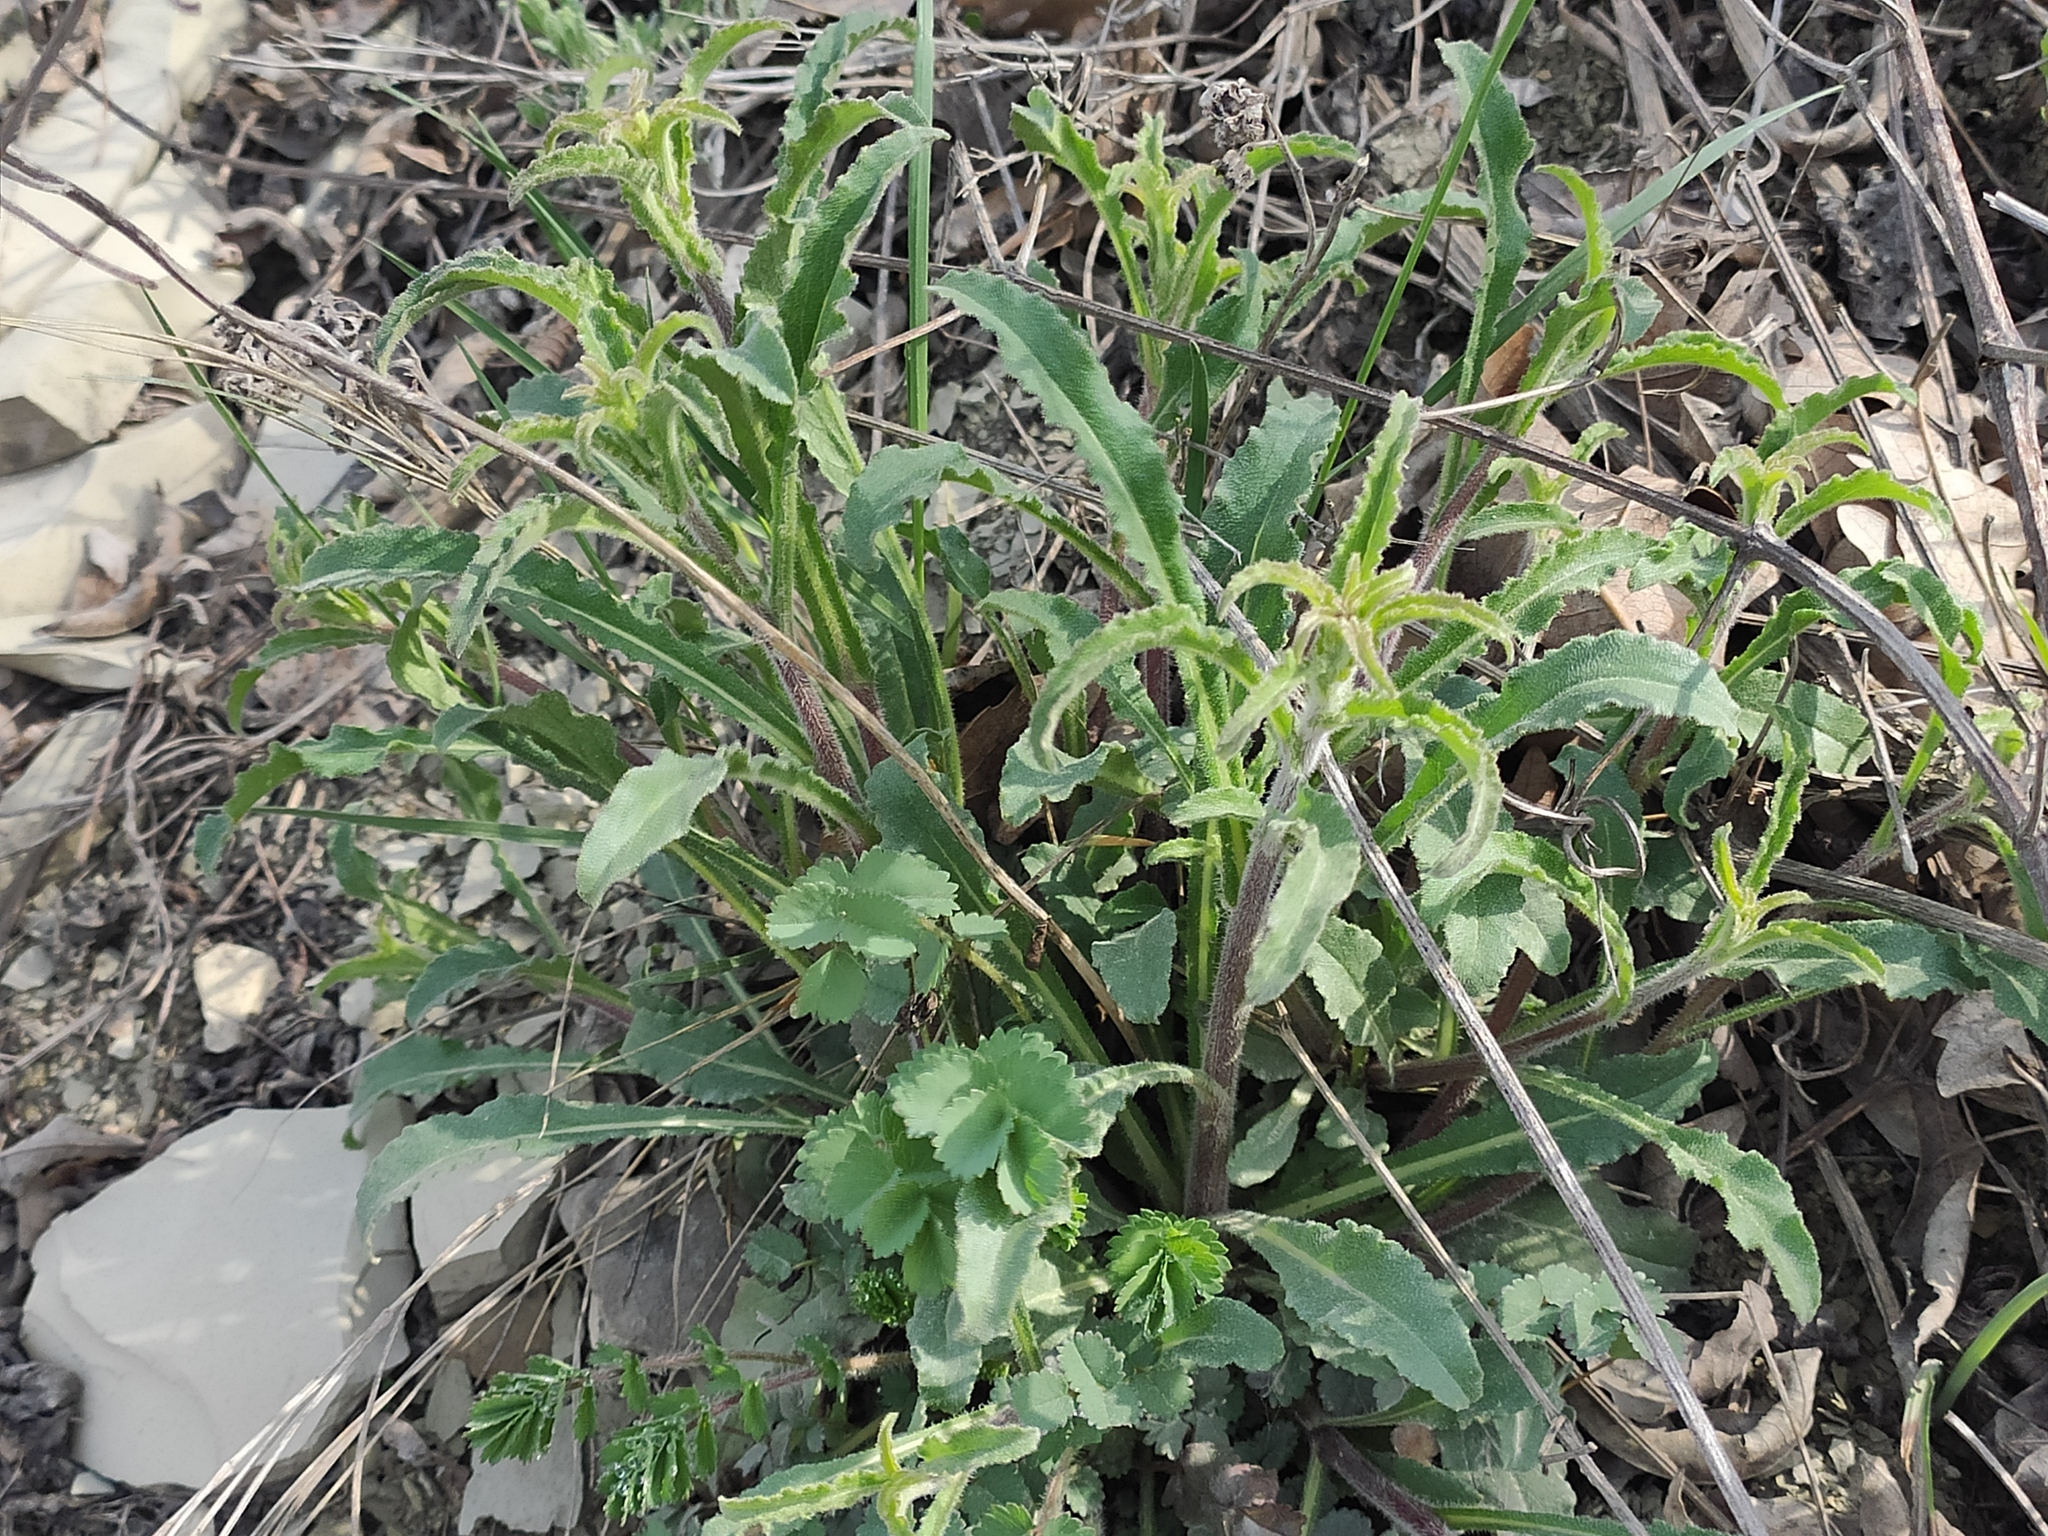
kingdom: Plantae
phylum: Tracheophyta
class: Magnoliopsida
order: Asterales
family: Campanulaceae
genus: Campanula
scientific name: Campanula komarovii
